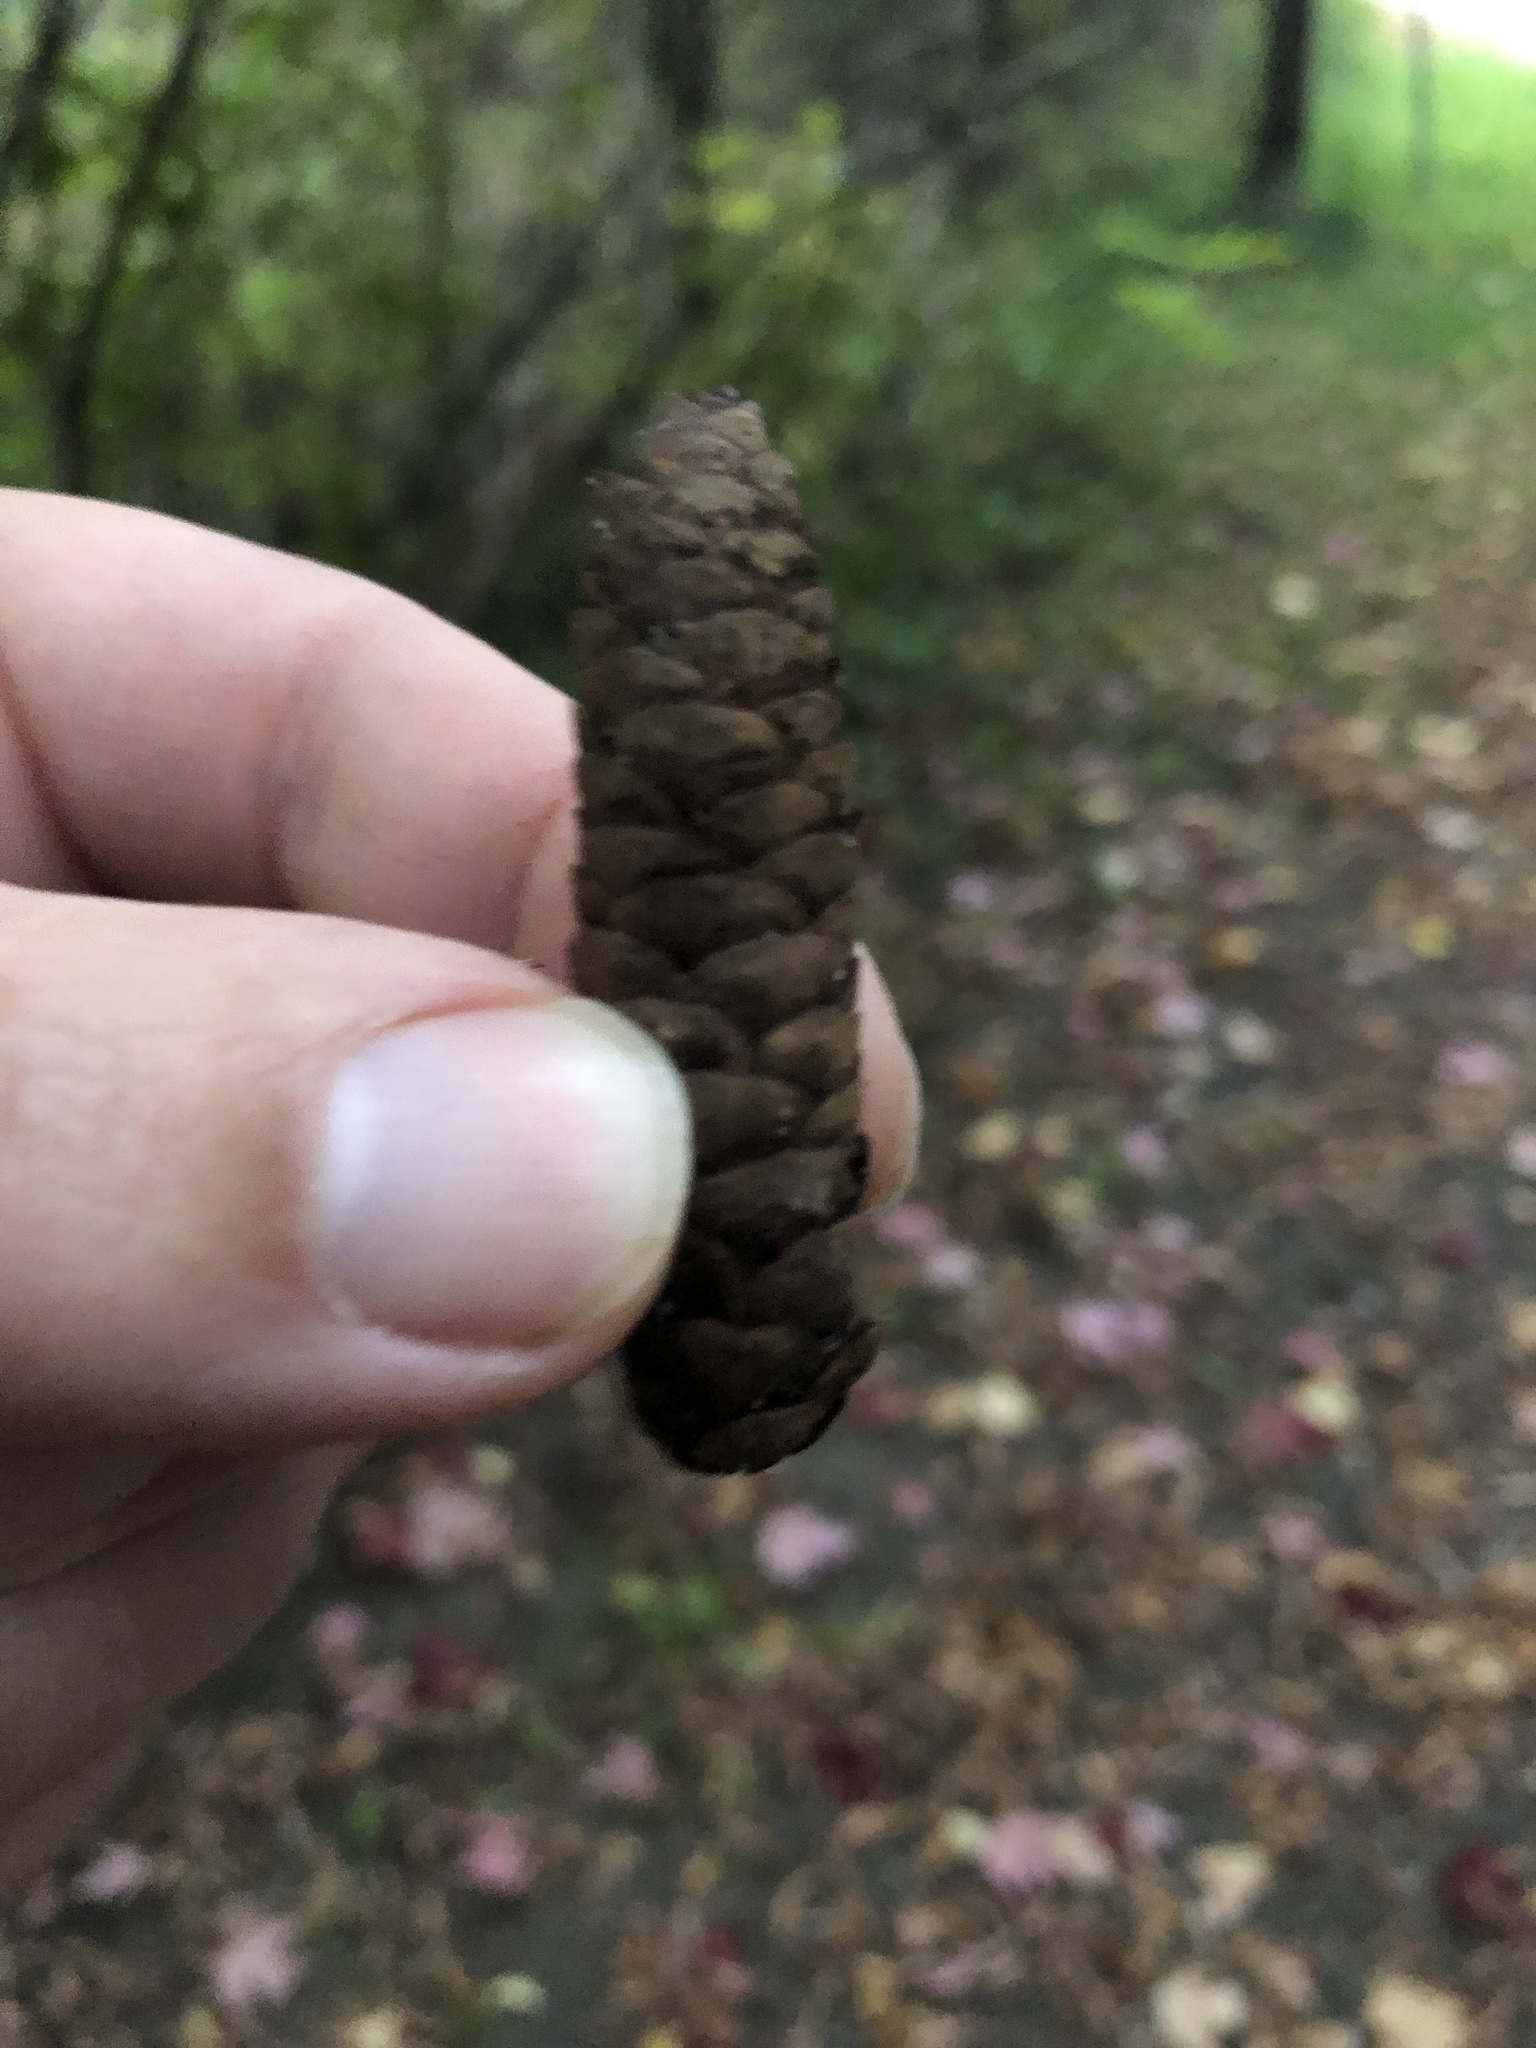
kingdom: Plantae
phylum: Tracheophyta
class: Pinopsida
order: Pinales
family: Pinaceae
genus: Picea
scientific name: Picea glauca
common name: White spruce
